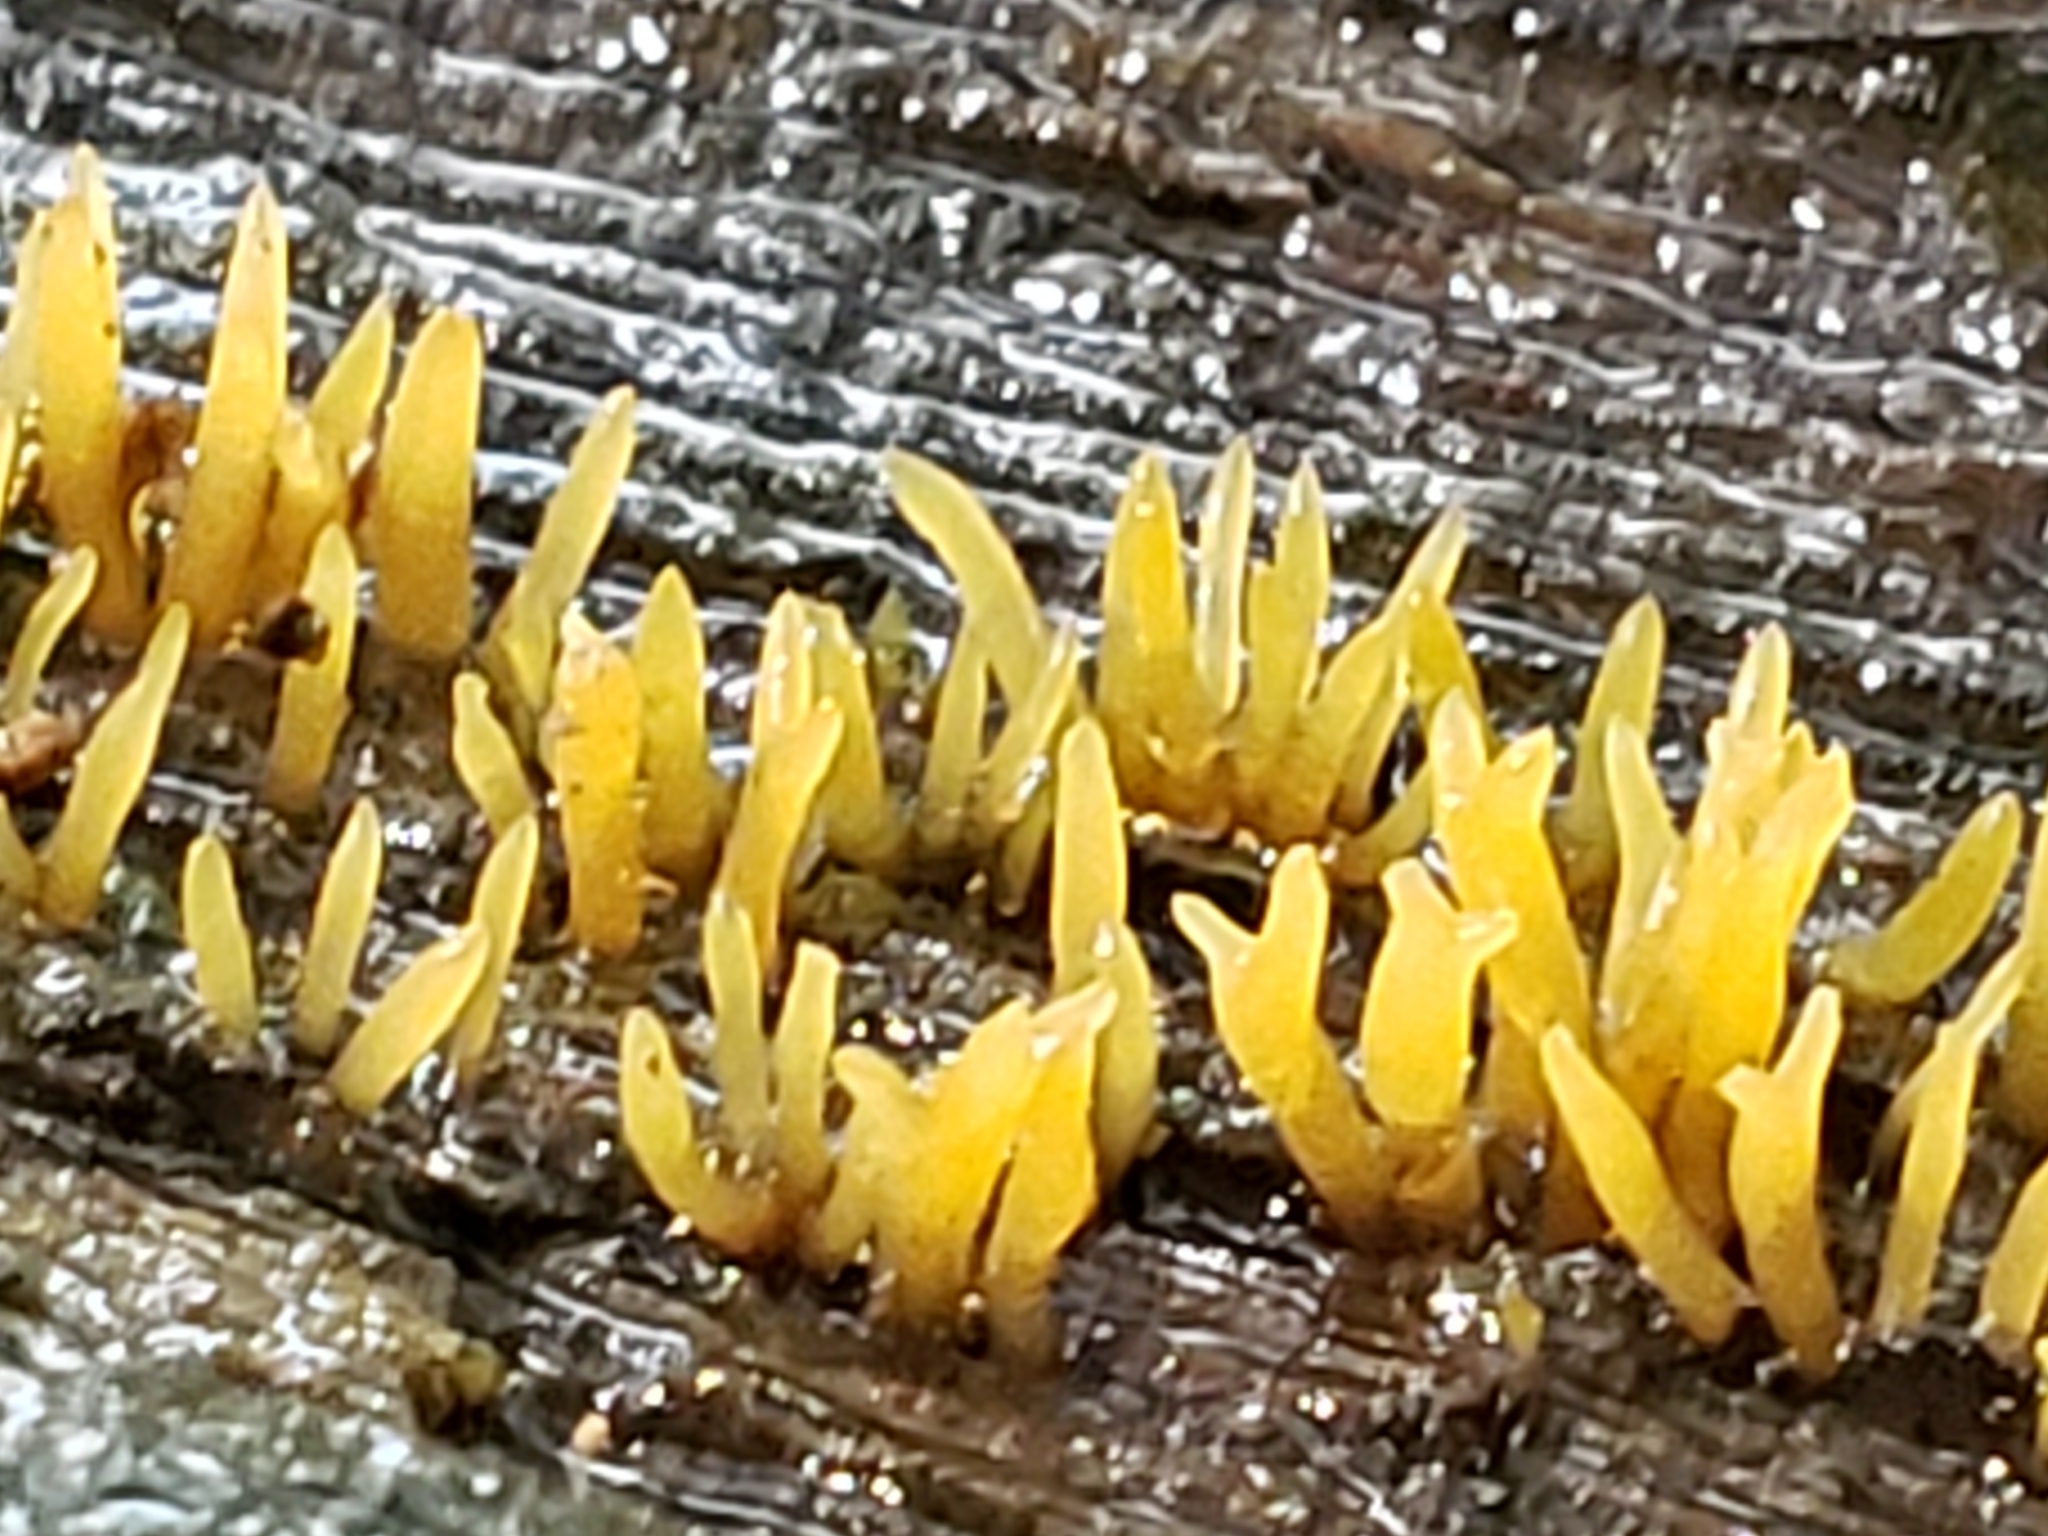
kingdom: Fungi
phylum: Basidiomycota
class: Dacrymycetes
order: Dacrymycetales
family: Dacrymycetaceae
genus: Calocera
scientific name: Calocera cornea
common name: Small stagshorn
